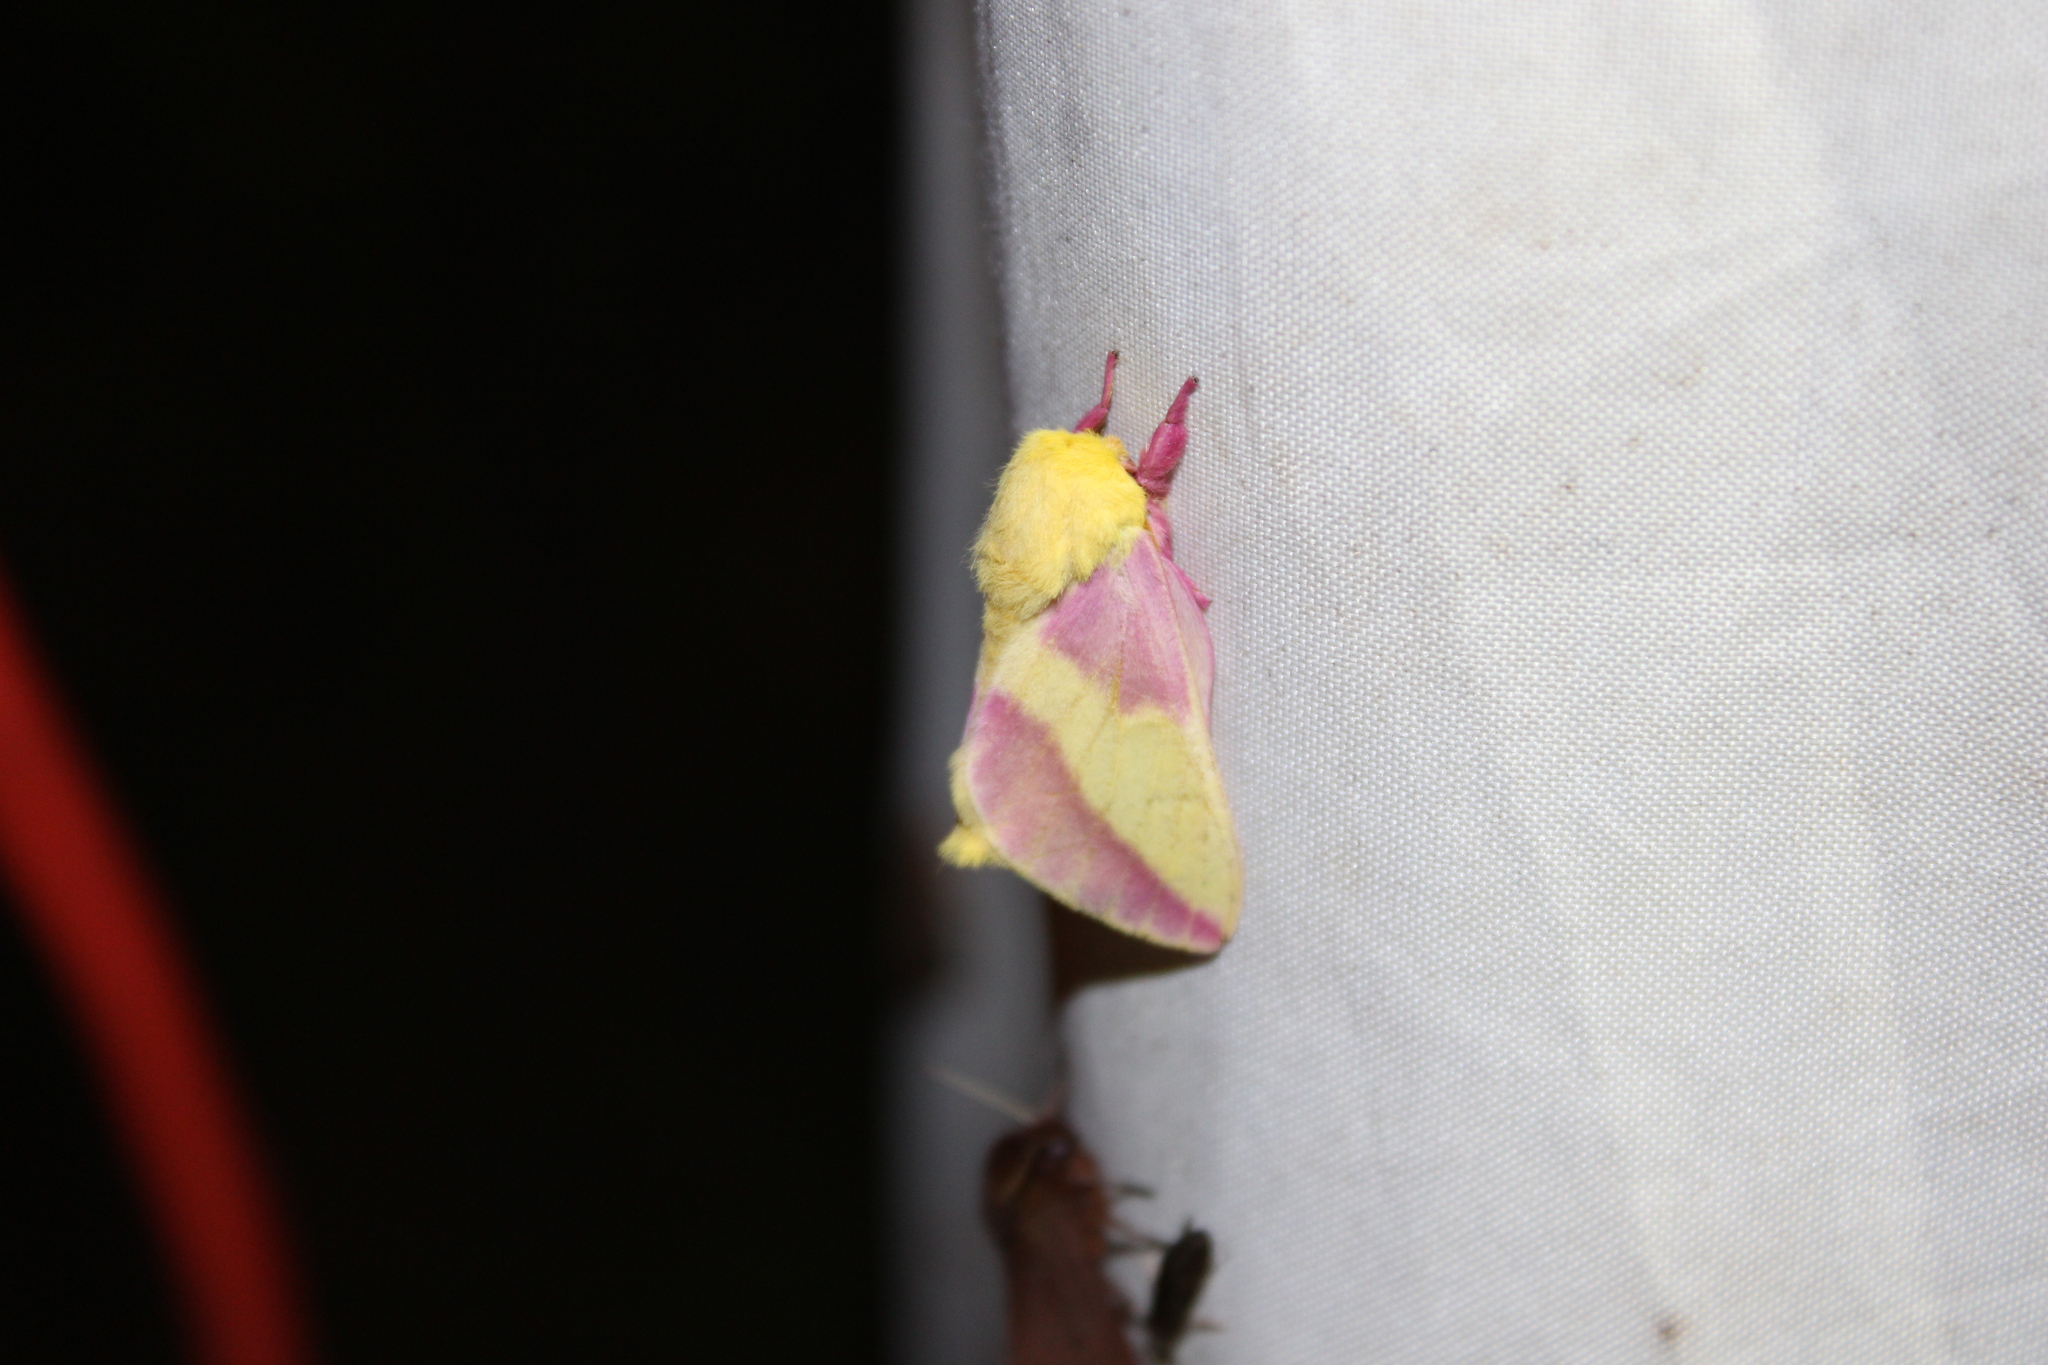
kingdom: Animalia
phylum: Arthropoda
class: Insecta
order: Lepidoptera
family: Saturniidae
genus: Dryocampa
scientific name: Dryocampa rubicunda
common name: Rosy maple moth
